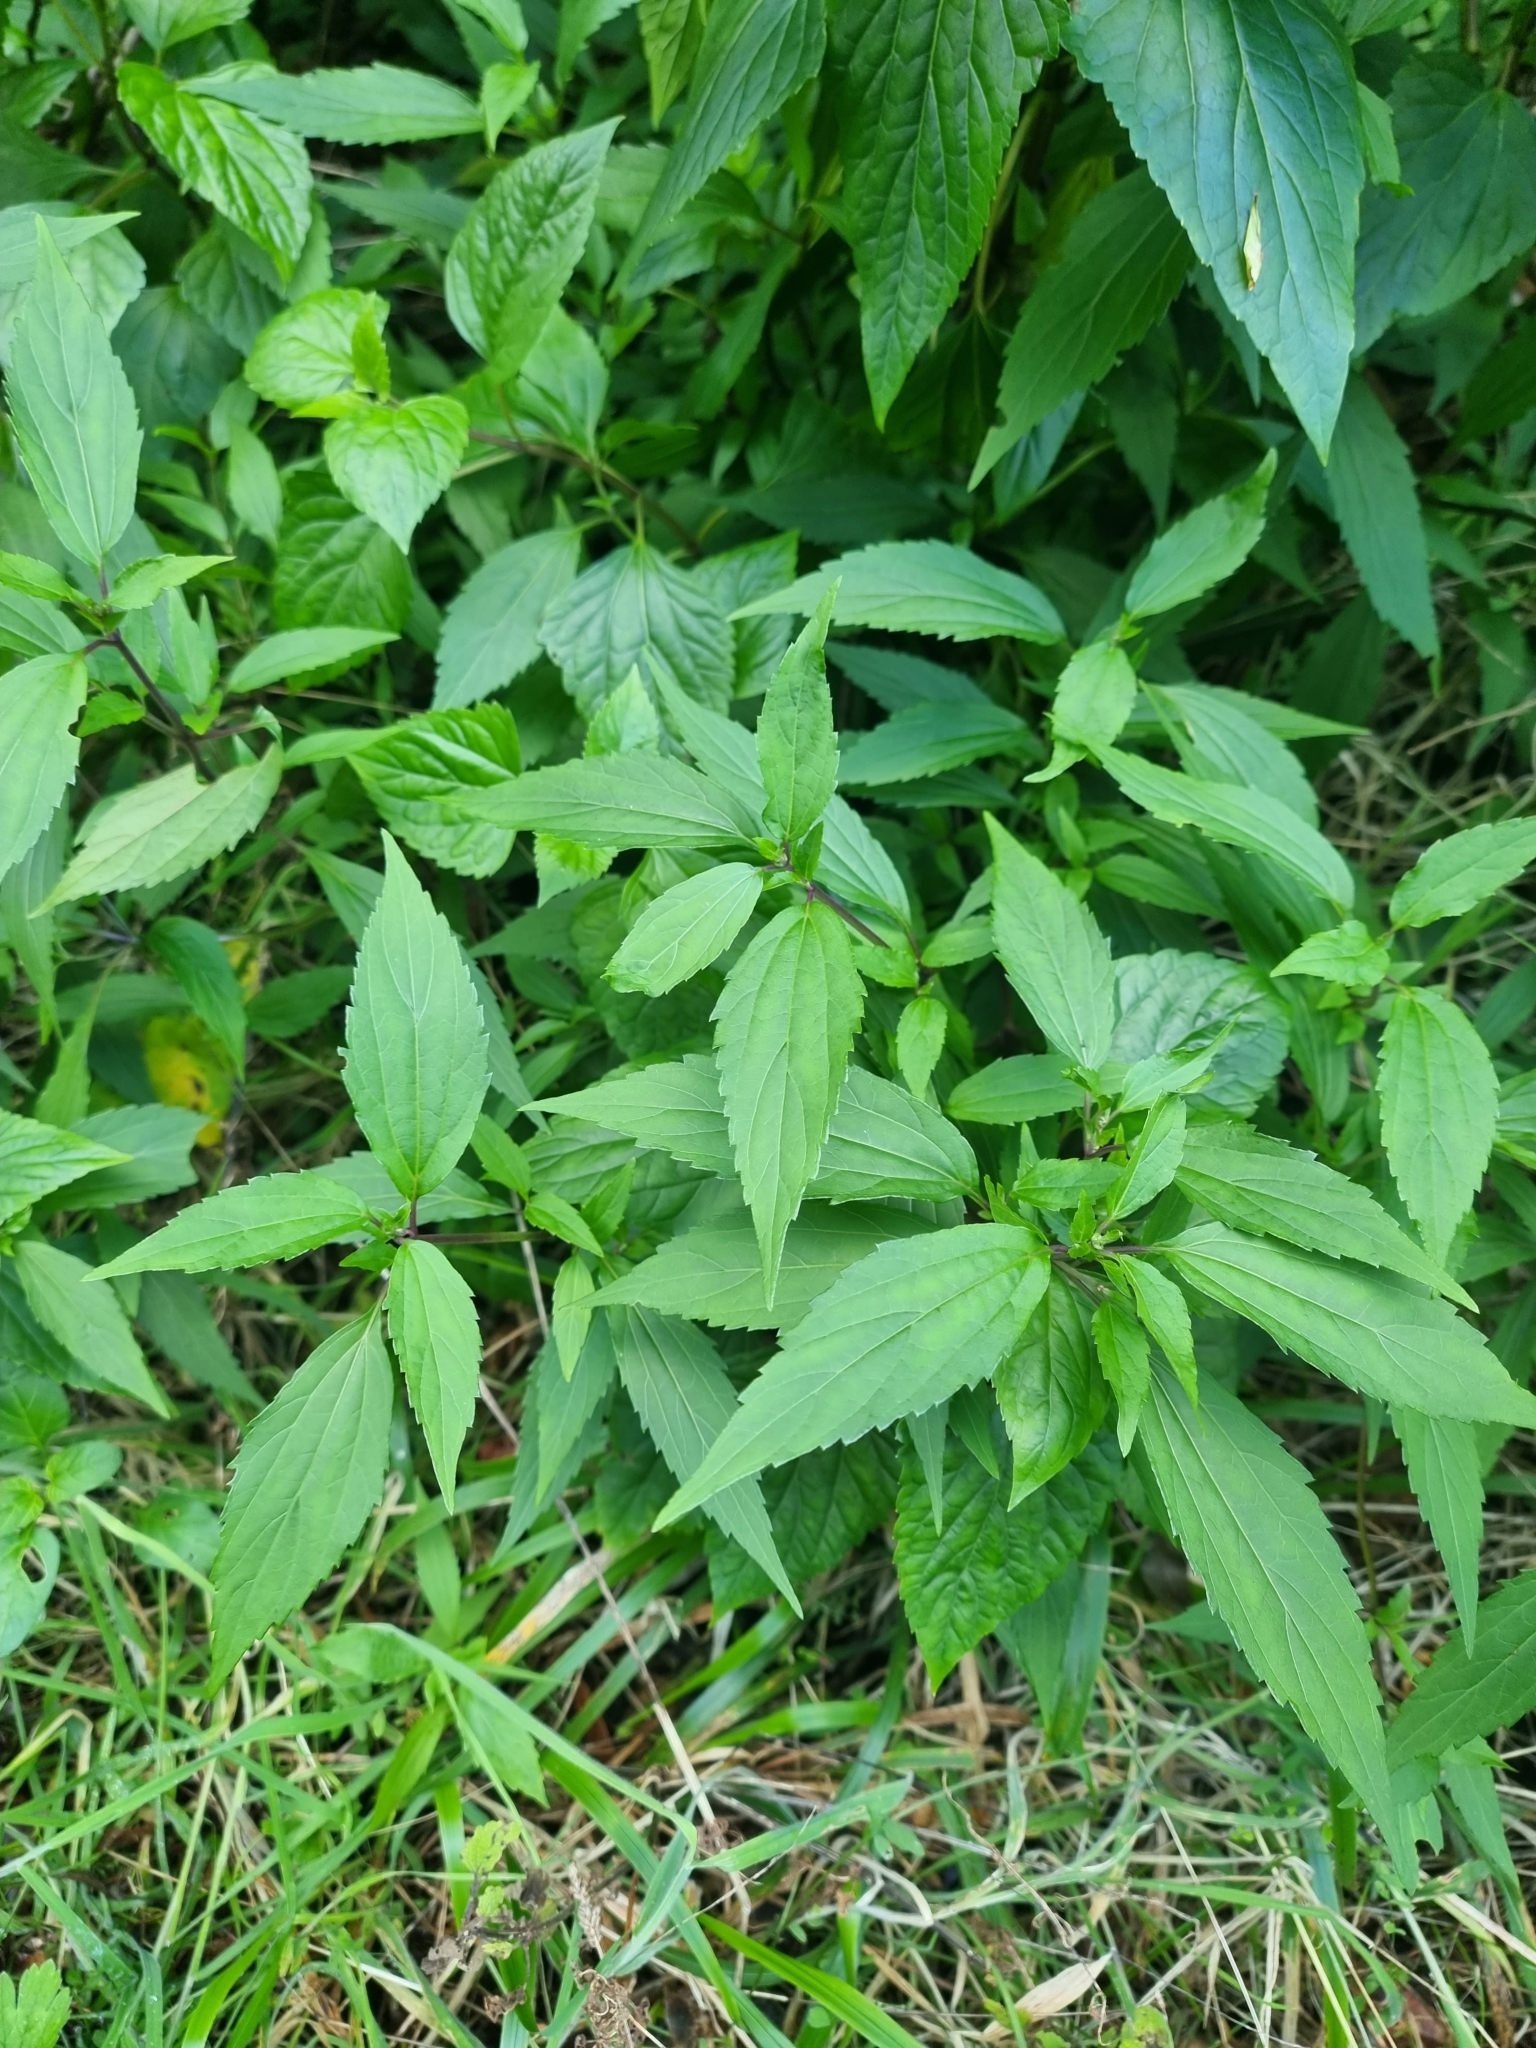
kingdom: Plantae
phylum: Tracheophyta
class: Magnoliopsida
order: Asterales
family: Asteraceae
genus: Ageratina
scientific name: Ageratina riparia
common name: Creeping croftonweed
